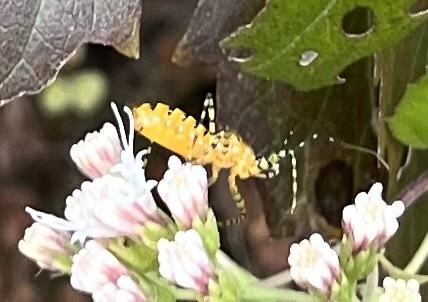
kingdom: Animalia
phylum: Arthropoda
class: Insecta
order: Hemiptera
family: Reduviidae
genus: Pselliopus
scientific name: Pselliopus barberi
